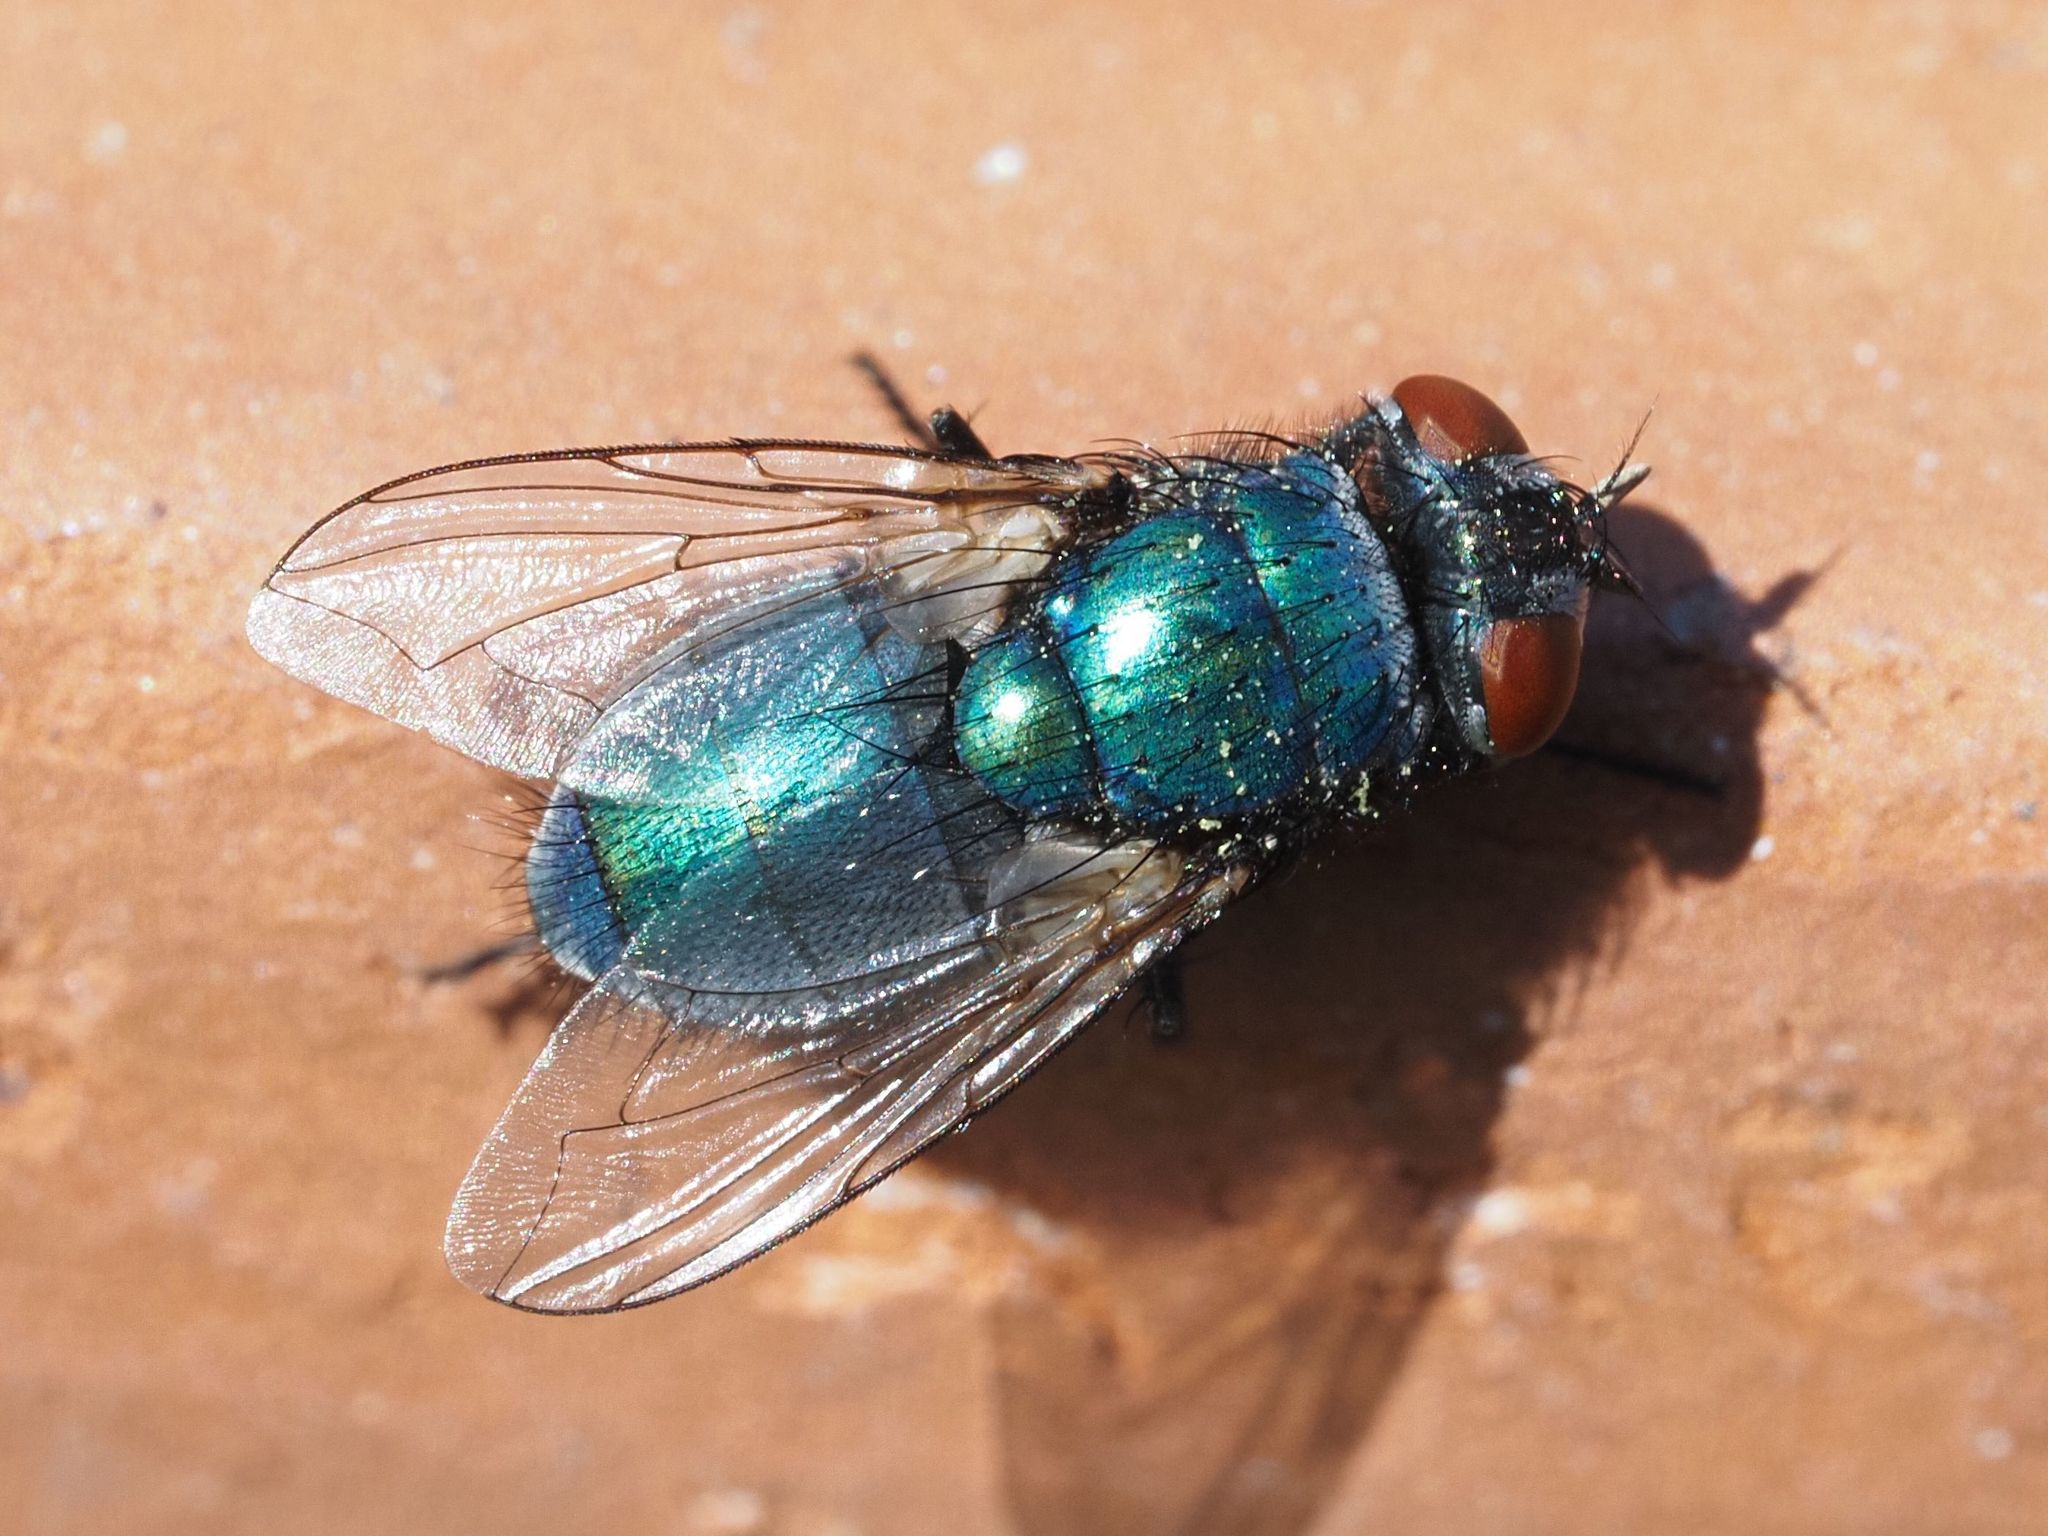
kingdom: Animalia
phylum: Arthropoda
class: Insecta
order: Diptera
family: Calliphoridae
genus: Lucilia
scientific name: Lucilia sericata
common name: Blow fly
